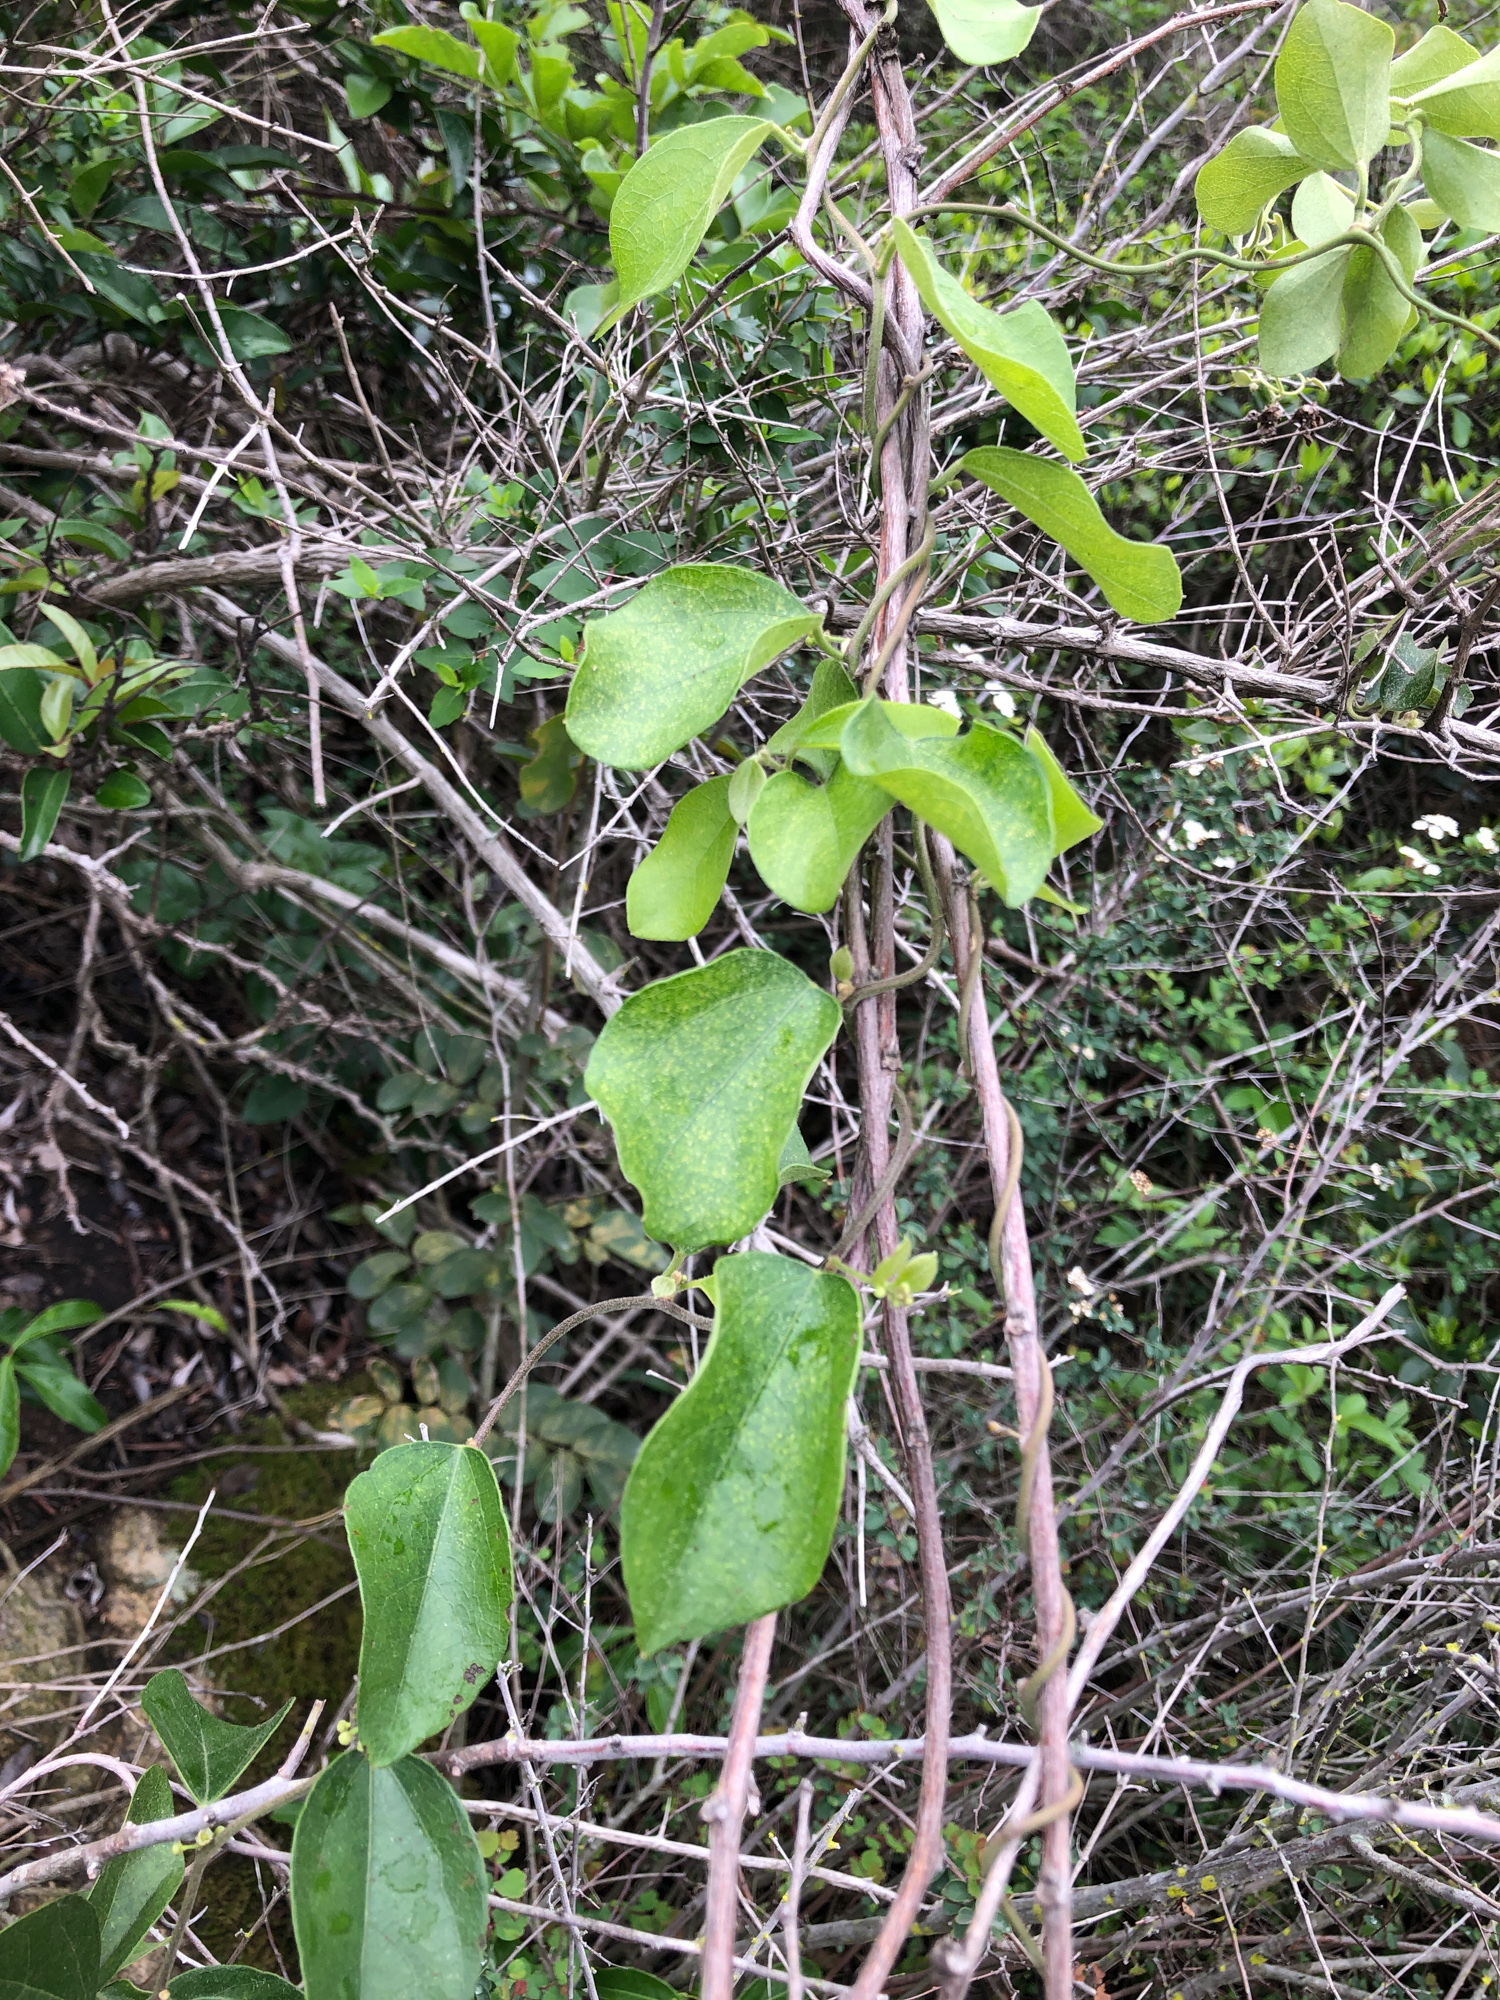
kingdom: Plantae
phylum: Tracheophyta
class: Magnoliopsida
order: Ranunculales
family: Menispermaceae
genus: Cocculus
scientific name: Cocculus orbiculatus
